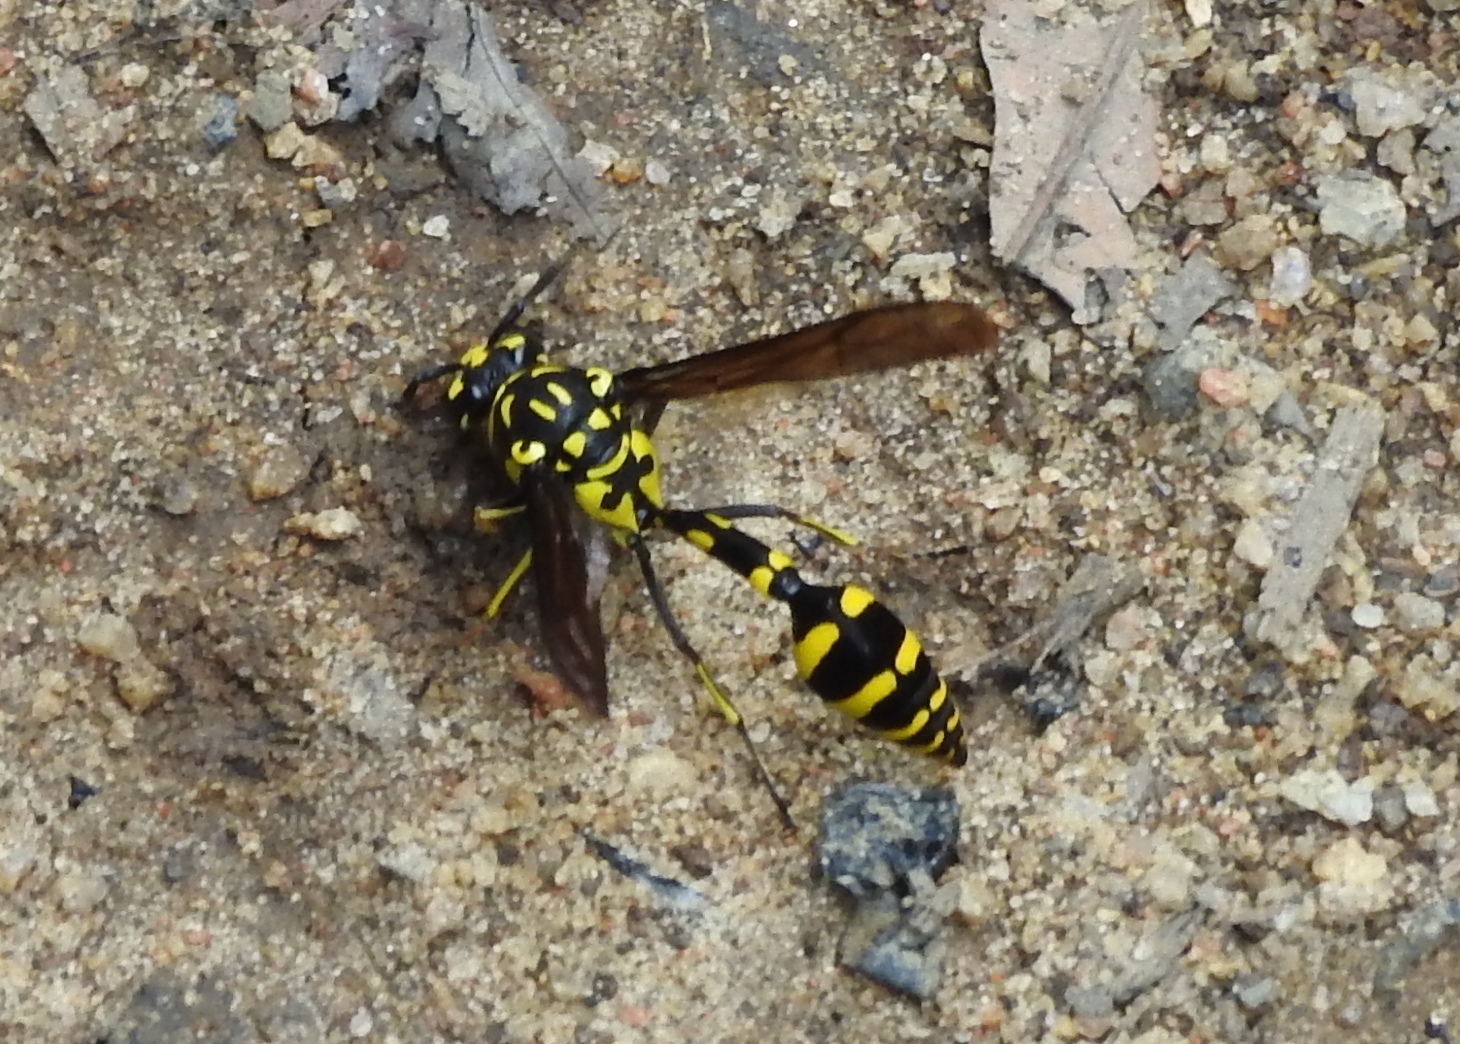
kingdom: Animalia
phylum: Arthropoda
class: Insecta
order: Hymenoptera
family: Eumenidae
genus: Phimenes
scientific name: Phimenes flavopictus
